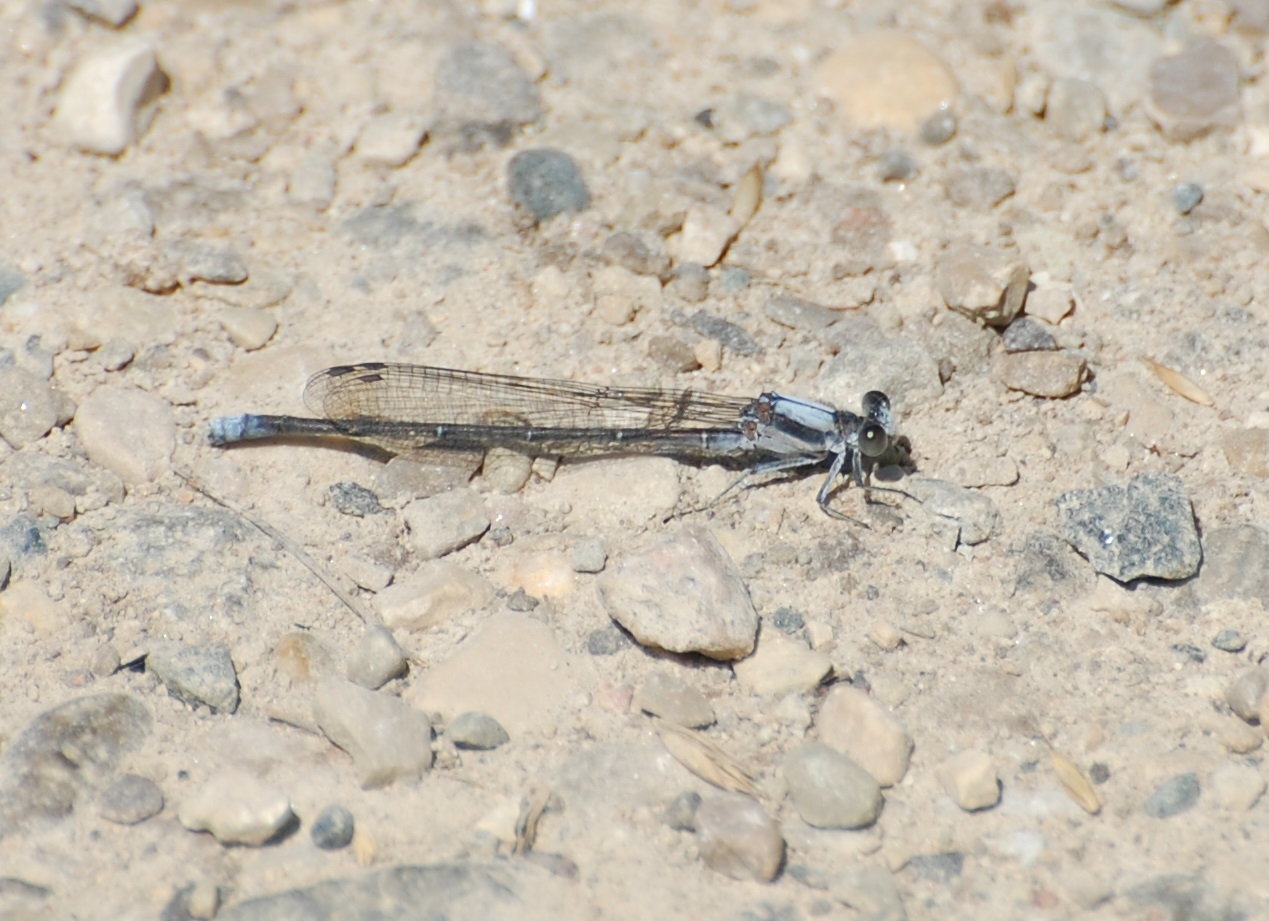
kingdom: Animalia
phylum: Arthropoda
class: Insecta
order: Odonata
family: Coenagrionidae
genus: Argia
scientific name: Argia moesta
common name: Powdered dancer
